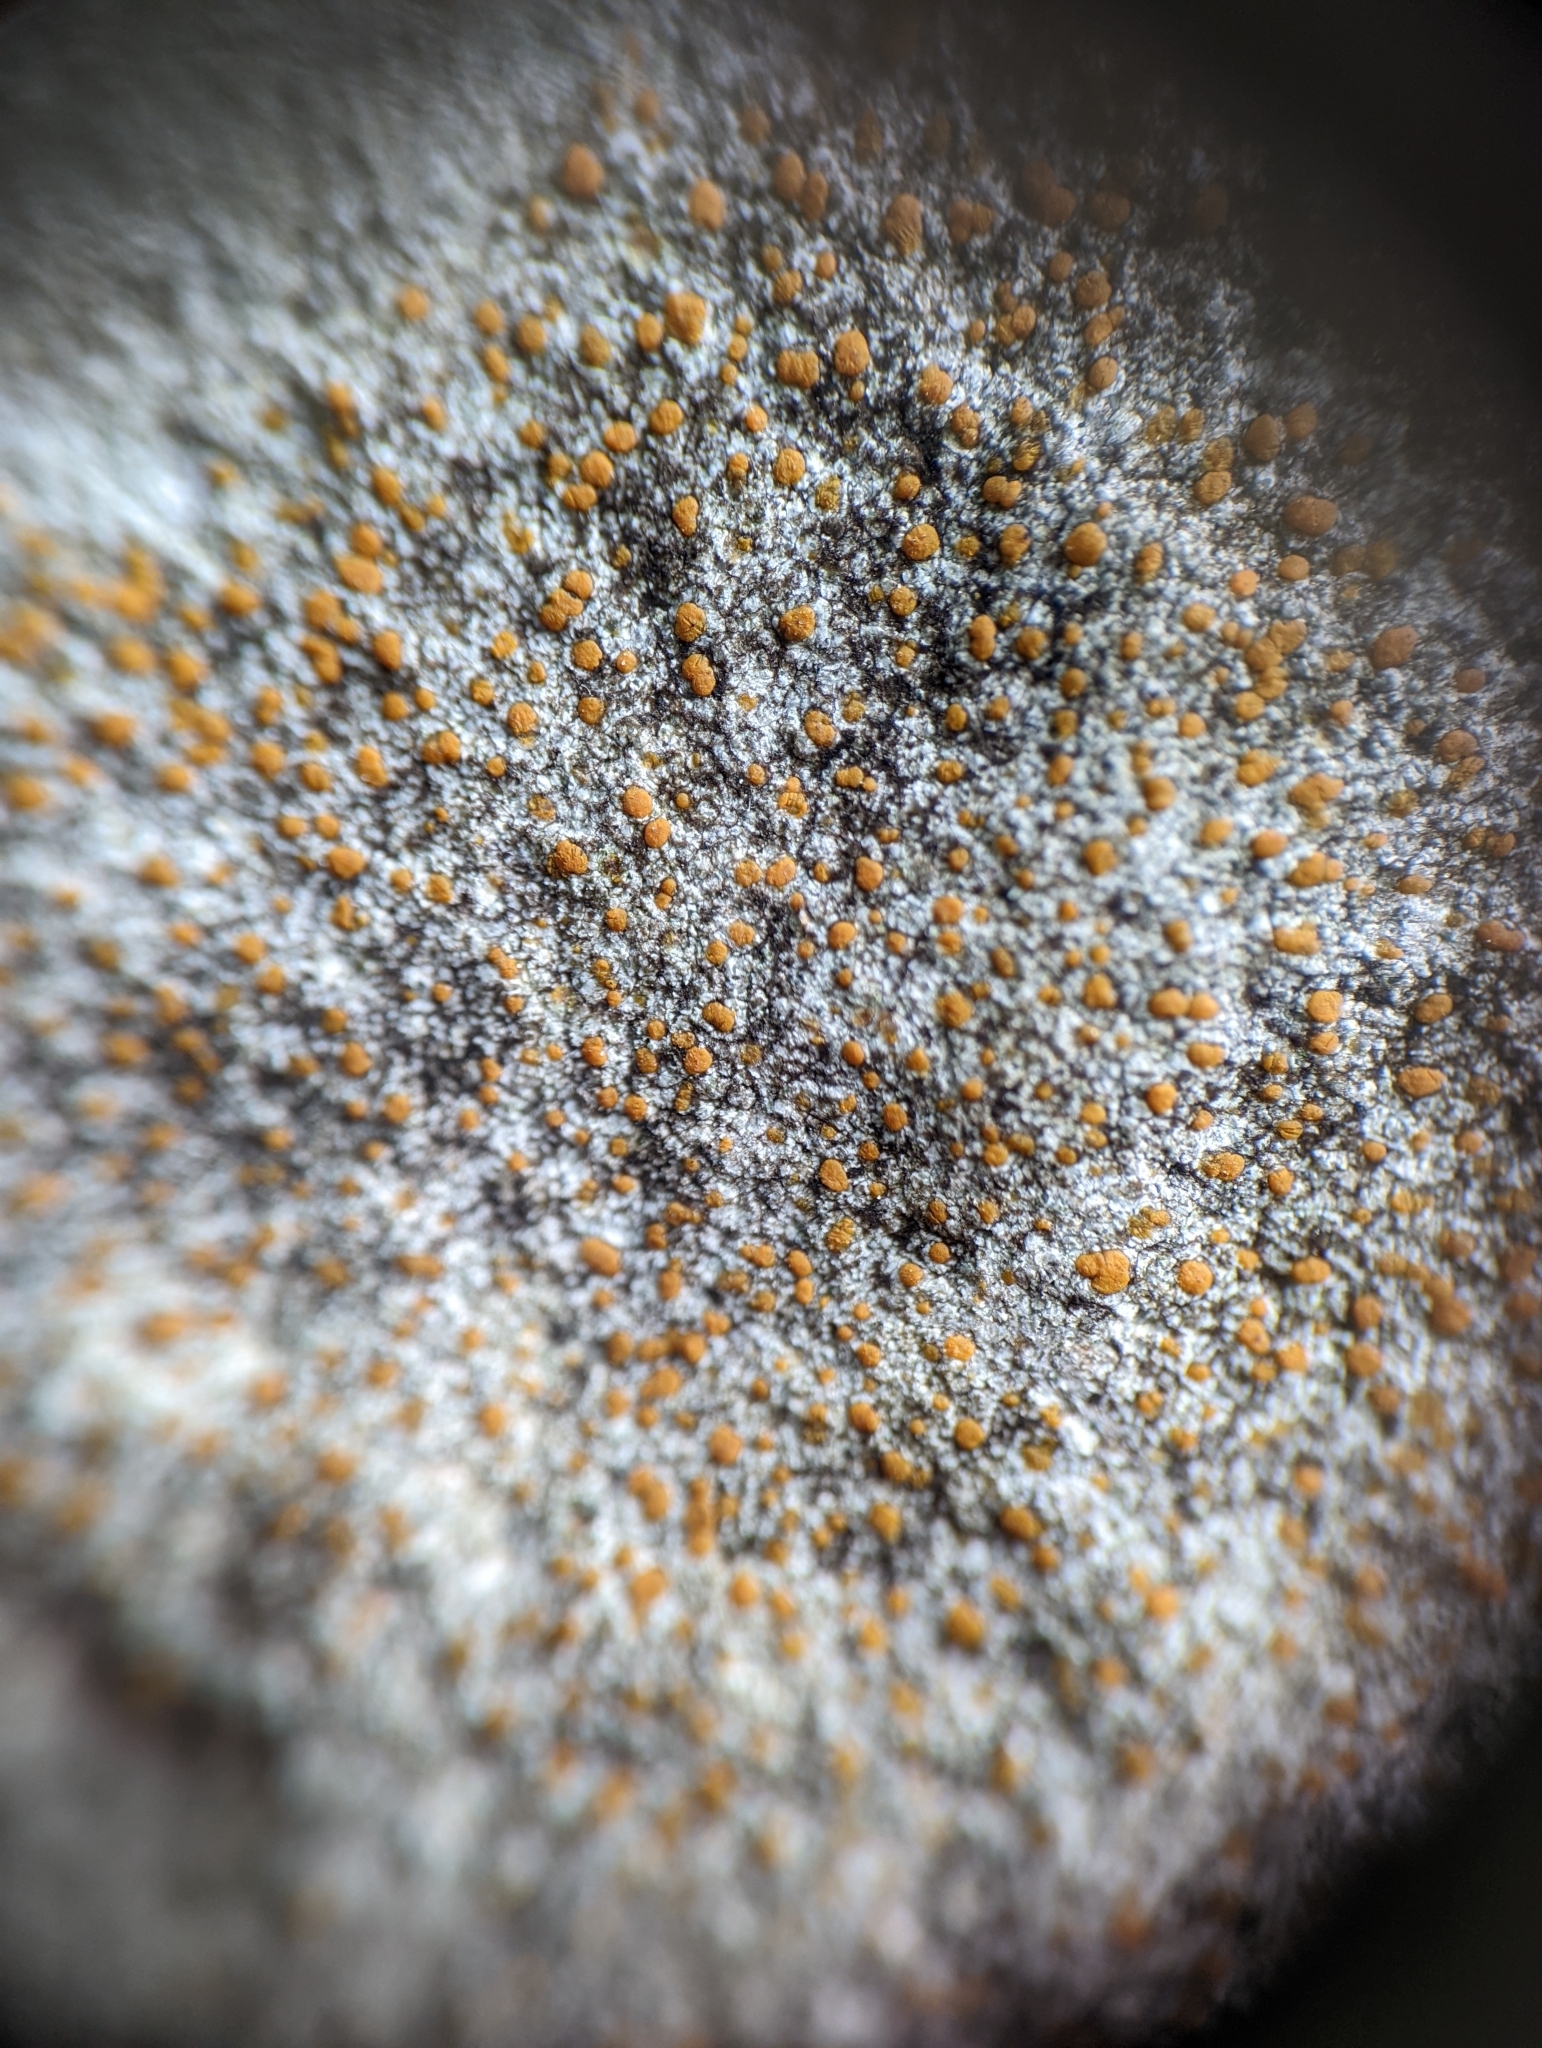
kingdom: Fungi
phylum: Ascomycota
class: Lecanoromycetes
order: Lecanorales
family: Psoraceae
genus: Protoblastenia
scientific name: Protoblastenia rupestris
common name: Chewing gum lichen
